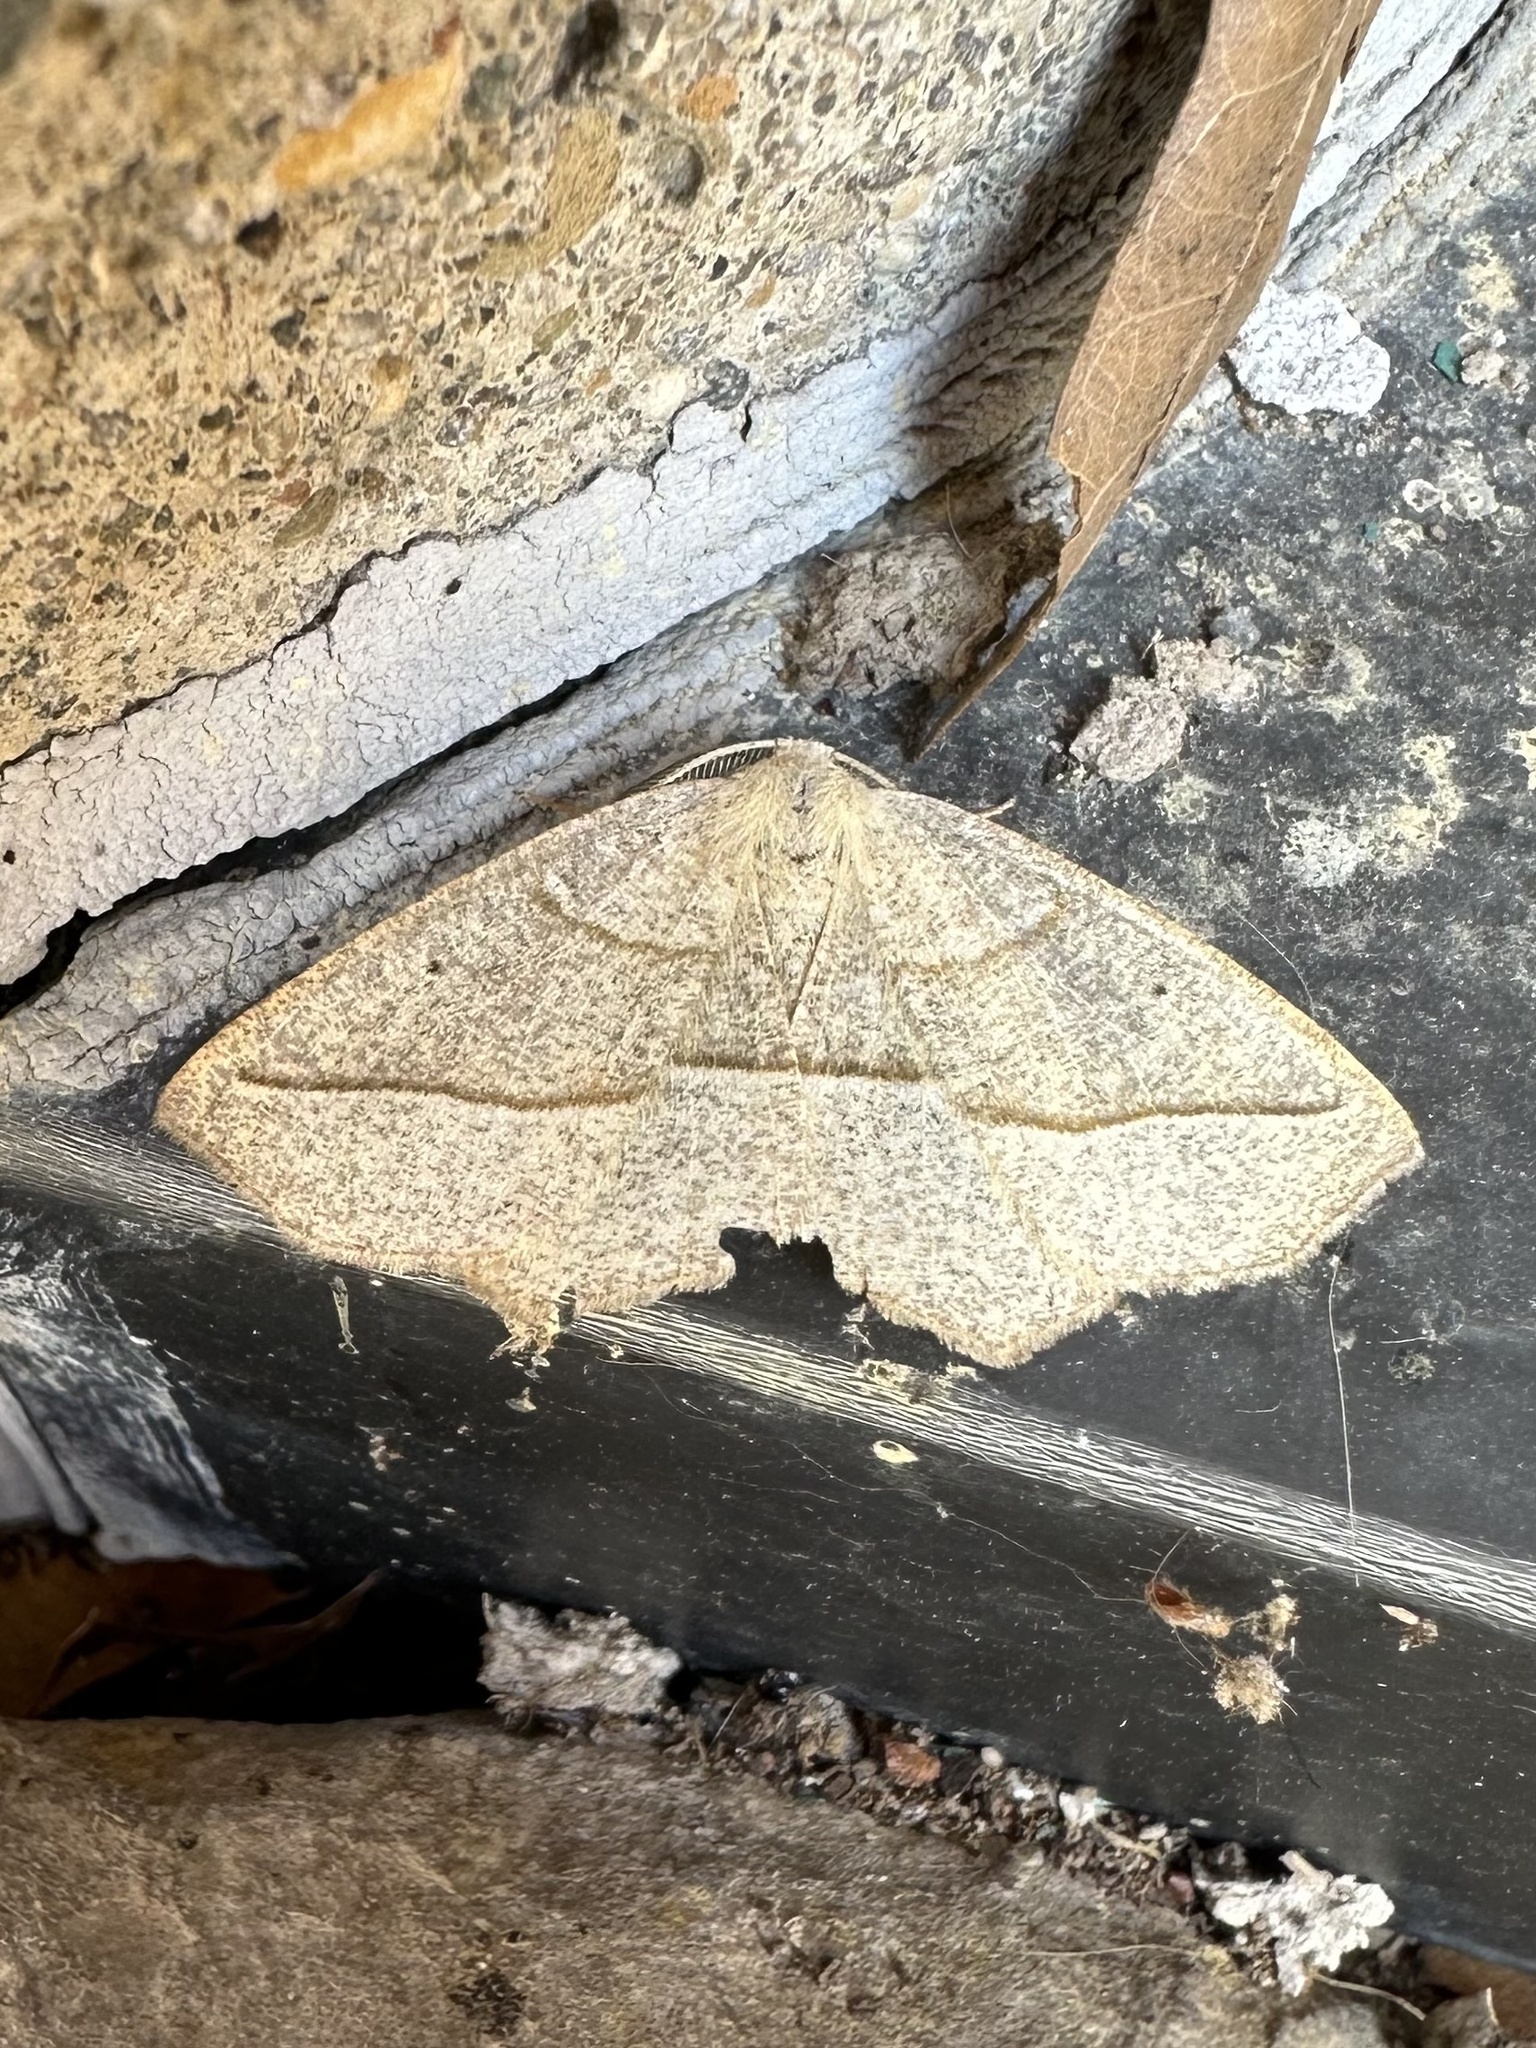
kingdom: Animalia
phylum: Arthropoda
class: Insecta
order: Lepidoptera
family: Geometridae
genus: Eusarca
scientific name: Eusarca confusaria
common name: Confused eusarca
